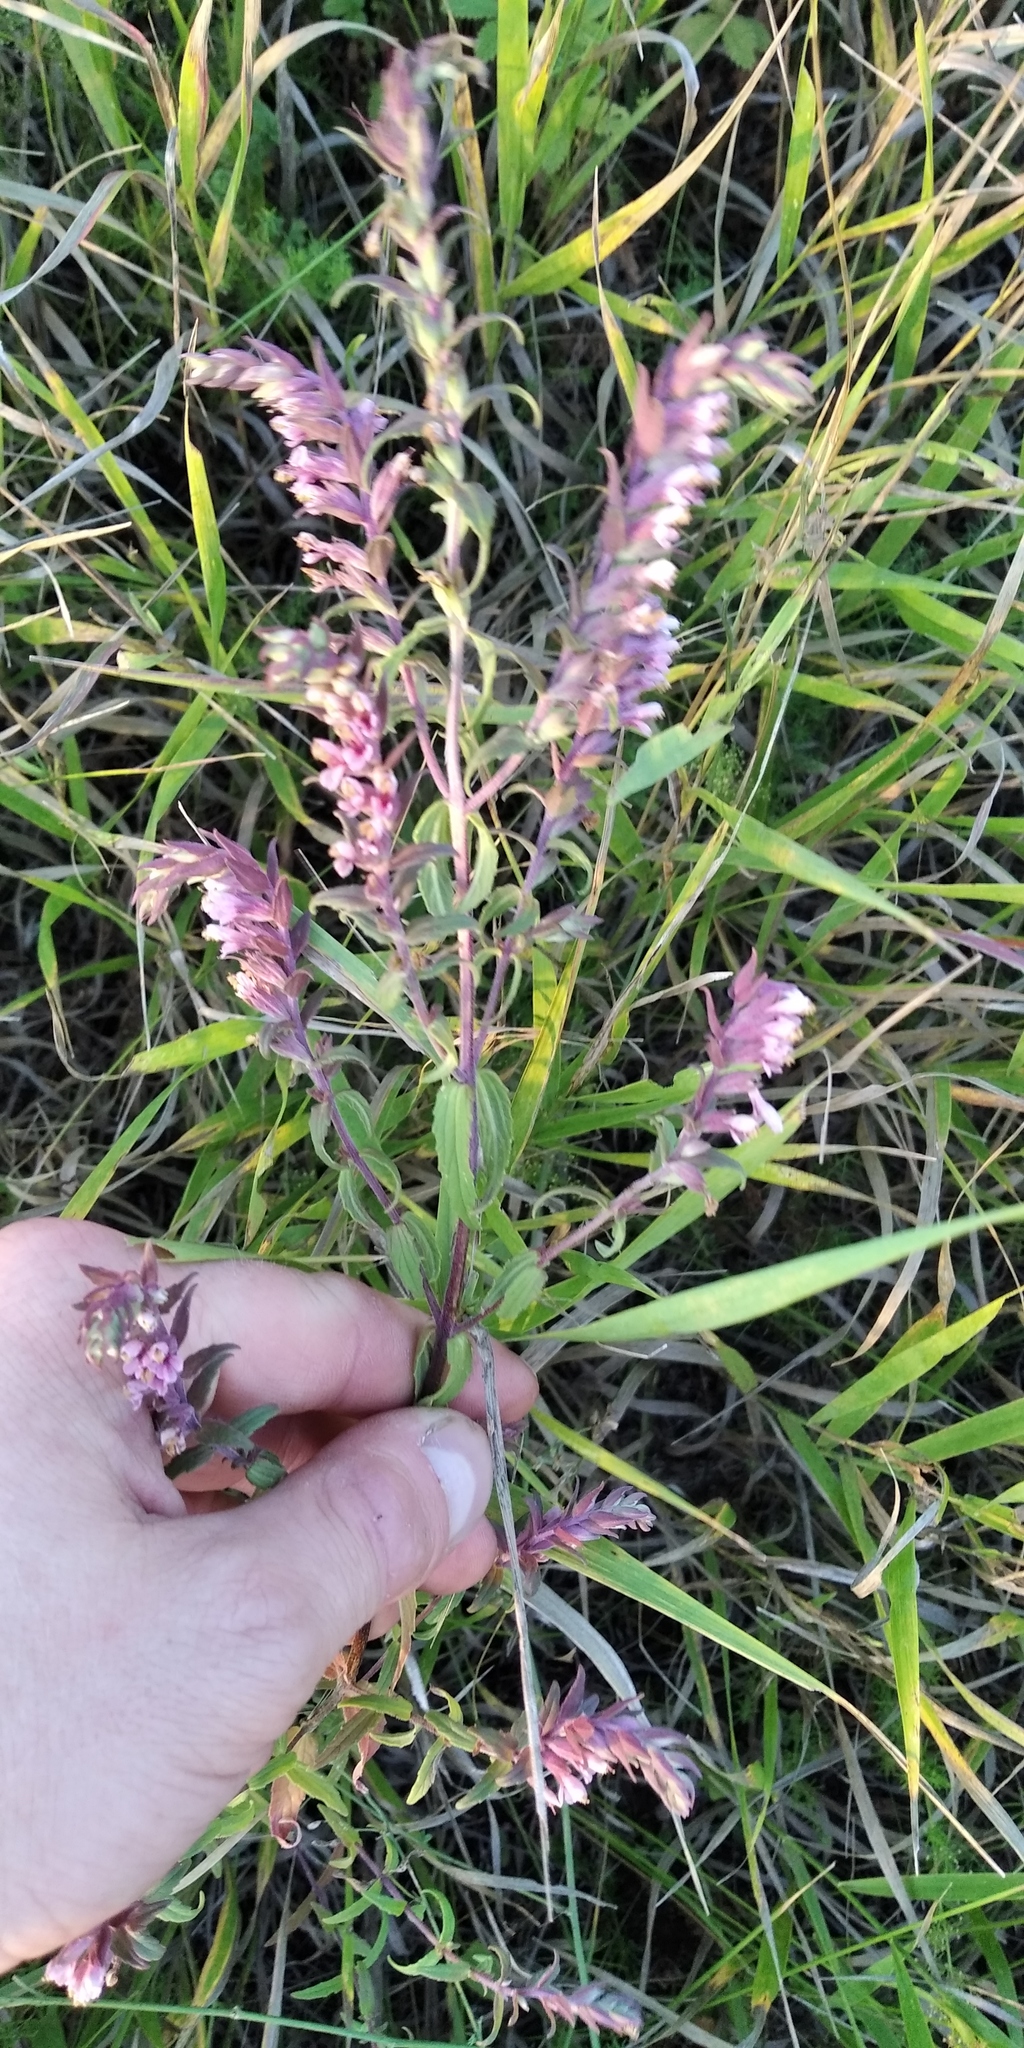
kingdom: Plantae
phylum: Tracheophyta
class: Magnoliopsida
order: Lamiales
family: Orobanchaceae
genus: Odontites
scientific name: Odontites vulgaris
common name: Broomrape
